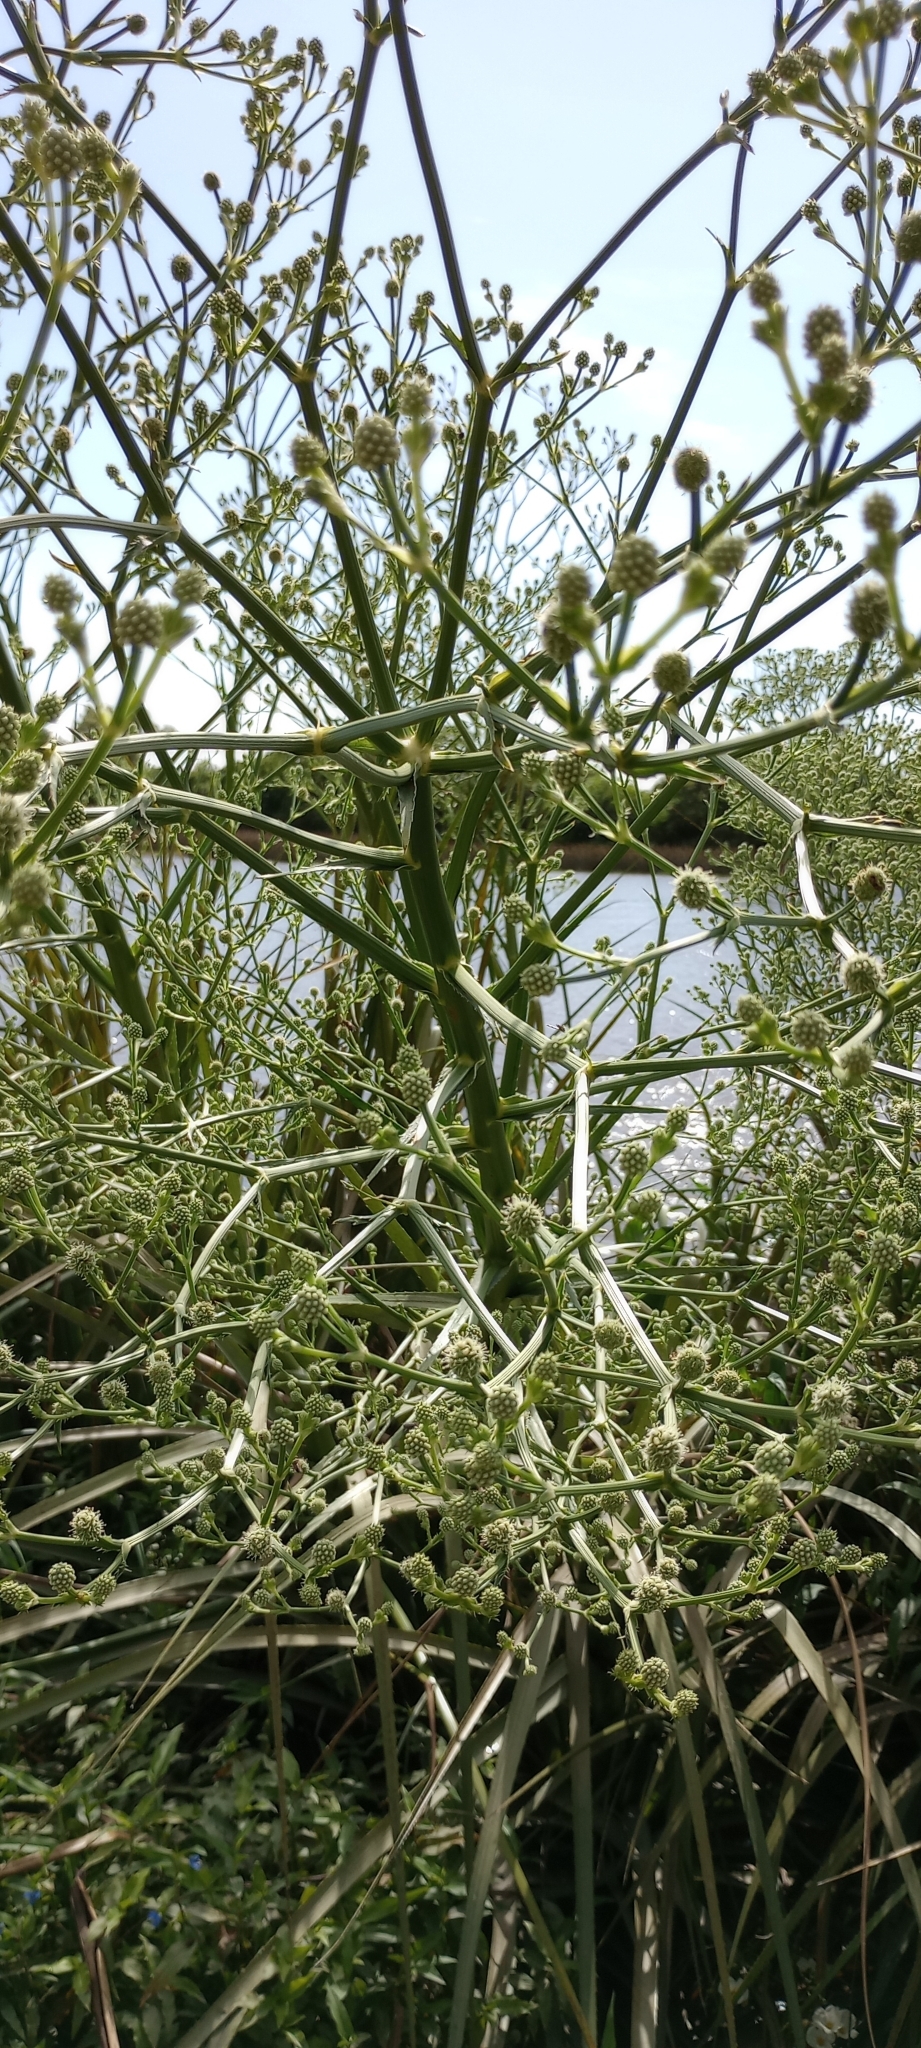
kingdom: Plantae
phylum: Tracheophyta
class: Magnoliopsida
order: Apiales
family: Apiaceae
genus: Eryngium
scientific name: Eryngium pandanifolium
